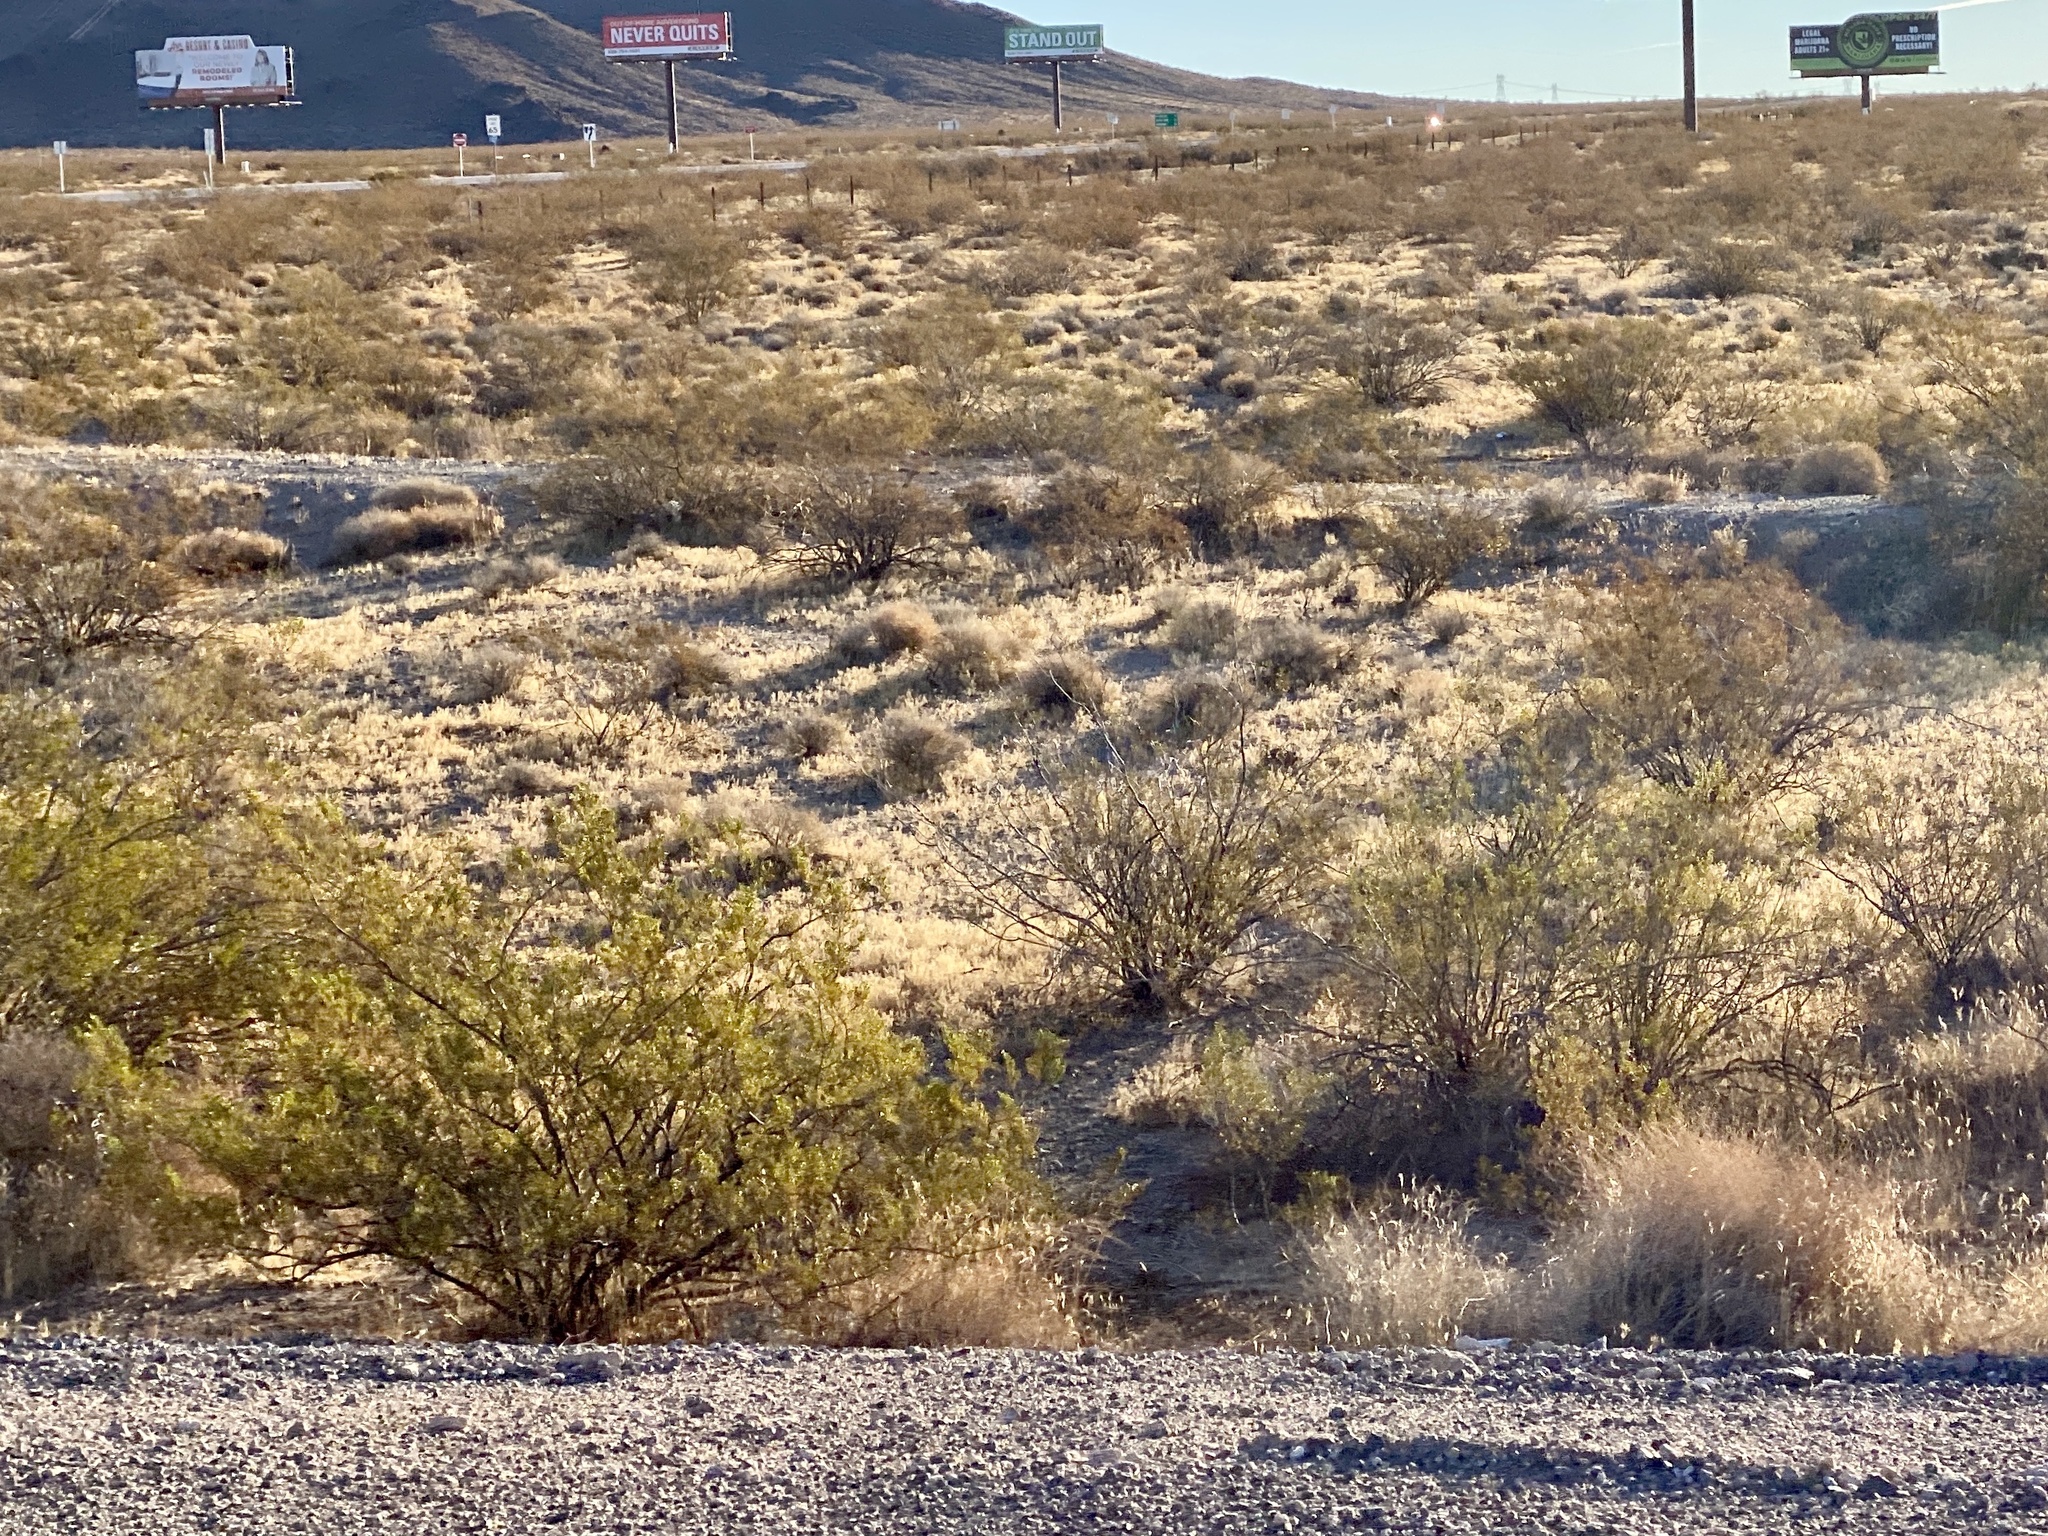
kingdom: Plantae
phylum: Tracheophyta
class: Magnoliopsida
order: Zygophyllales
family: Zygophyllaceae
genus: Larrea
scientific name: Larrea tridentata
